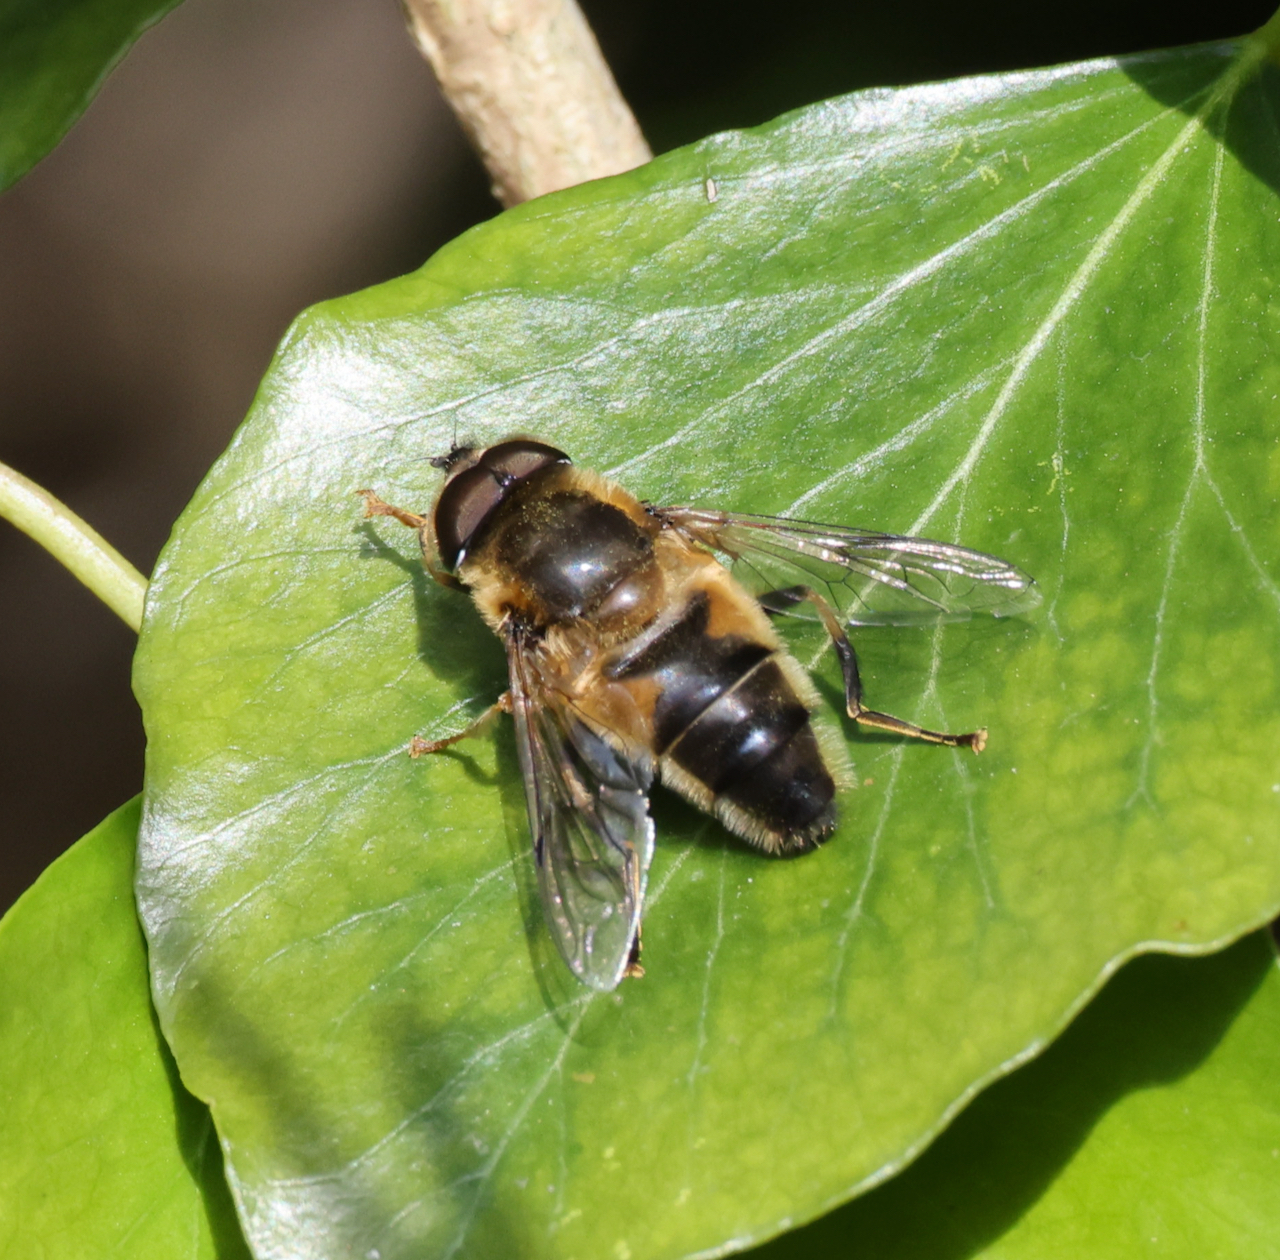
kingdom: Animalia
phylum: Arthropoda
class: Insecta
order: Diptera
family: Syrphidae
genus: Eristalis
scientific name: Eristalis pertinax
